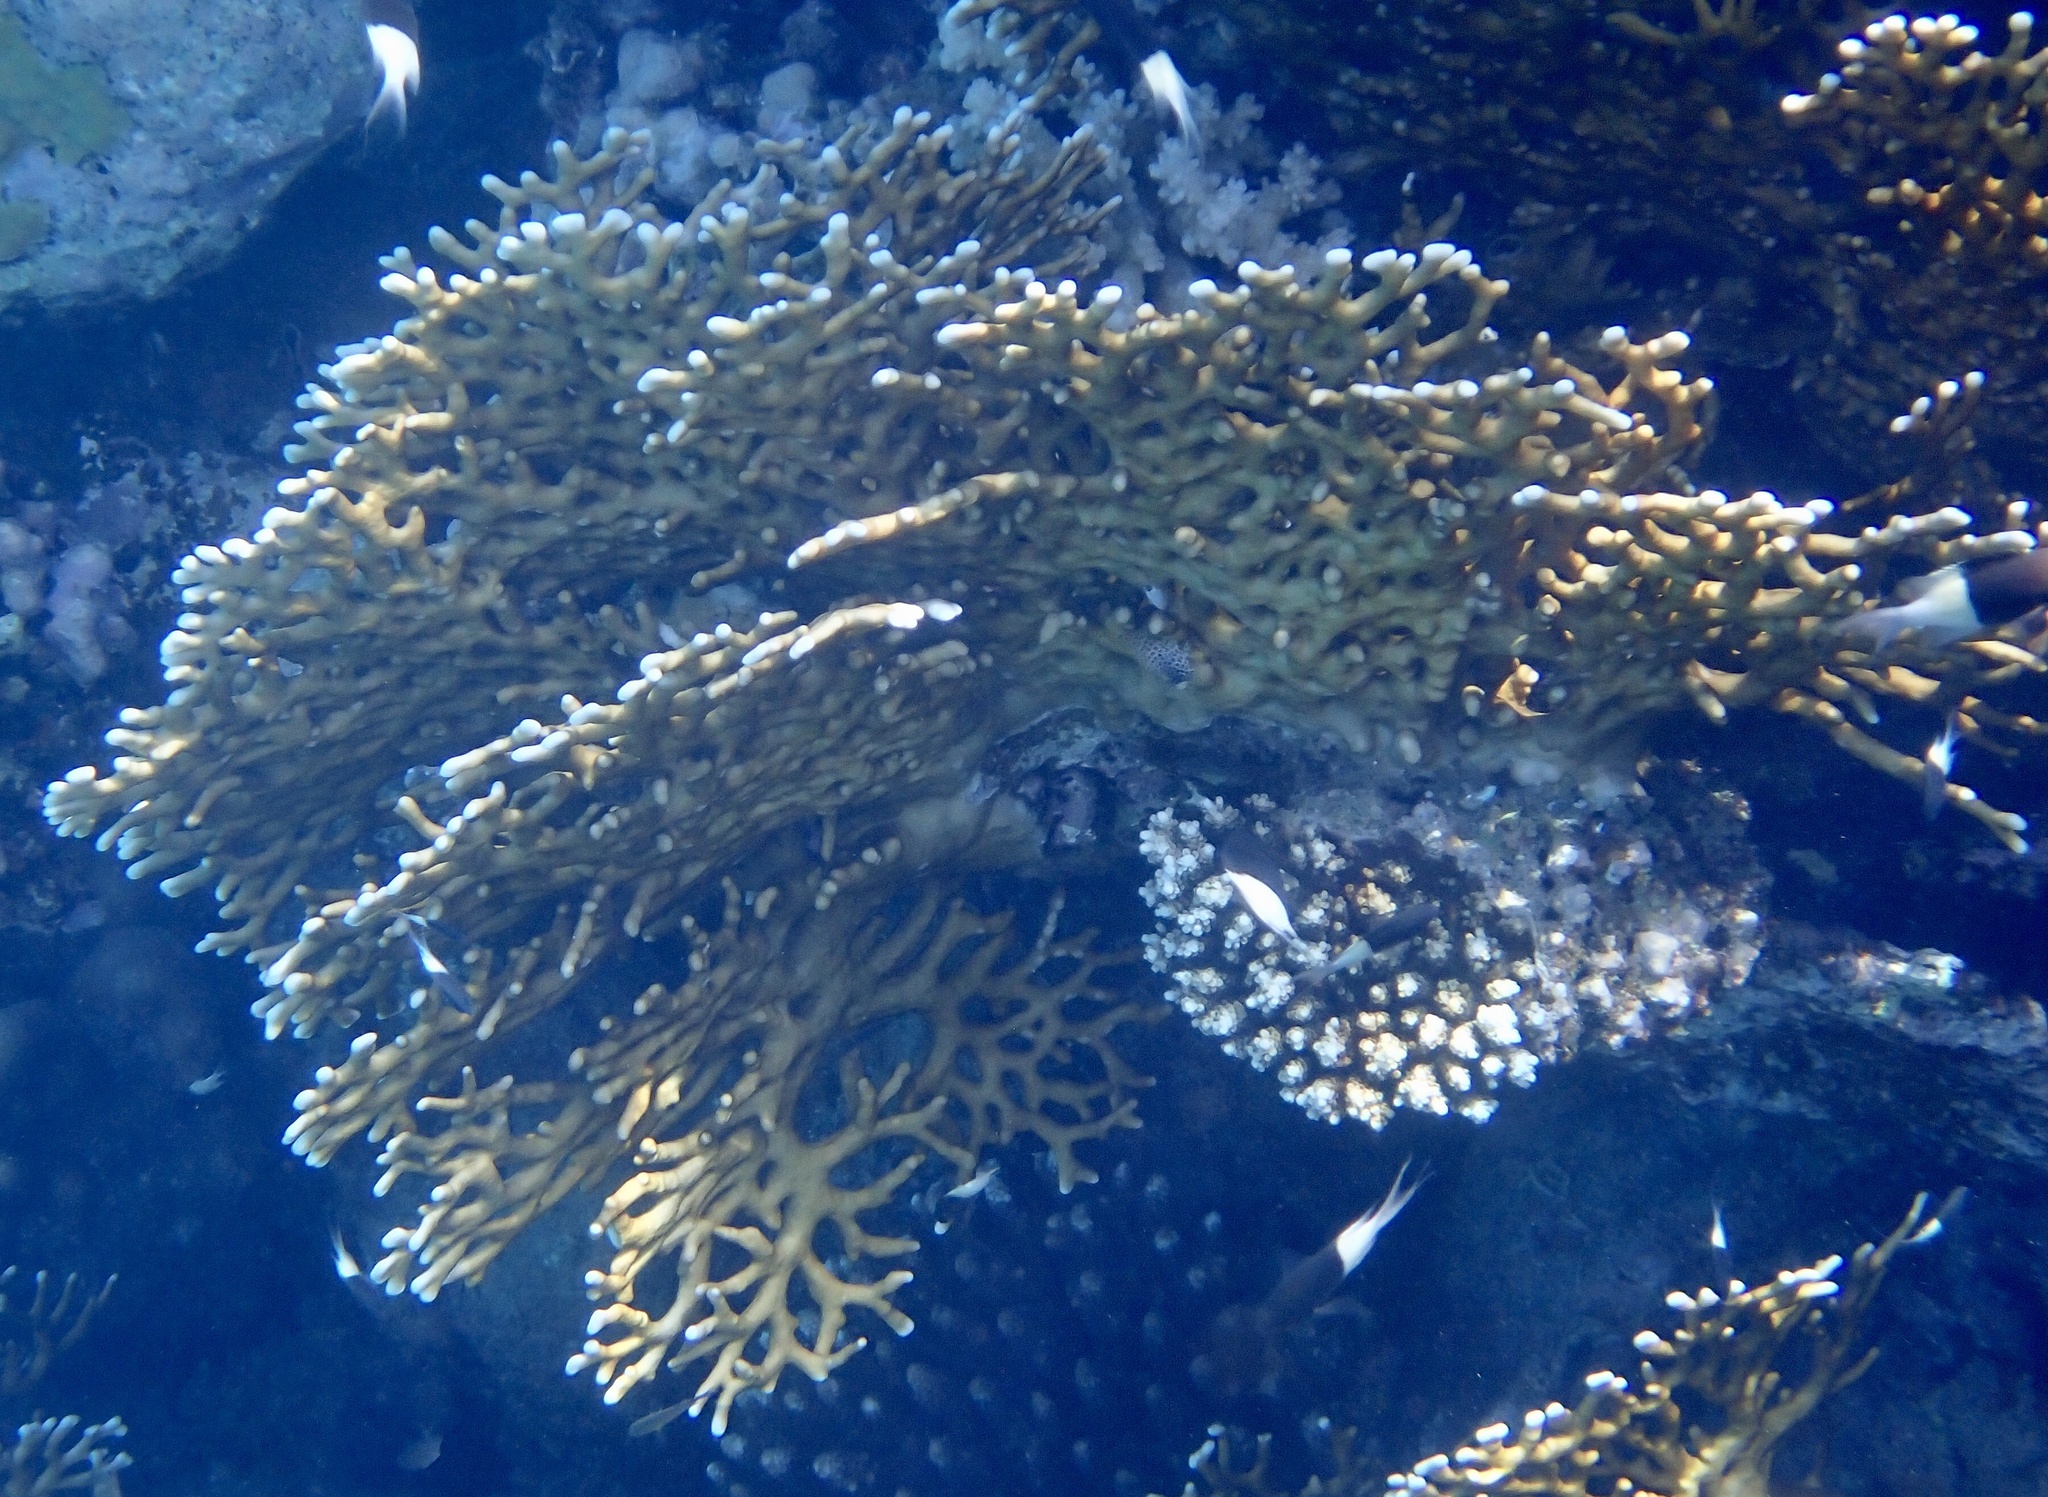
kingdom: Animalia
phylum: Cnidaria
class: Hydrozoa
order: Anthoathecata
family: Milleporidae
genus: Millepora
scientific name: Millepora dichotoma
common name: Ramified fire coral
